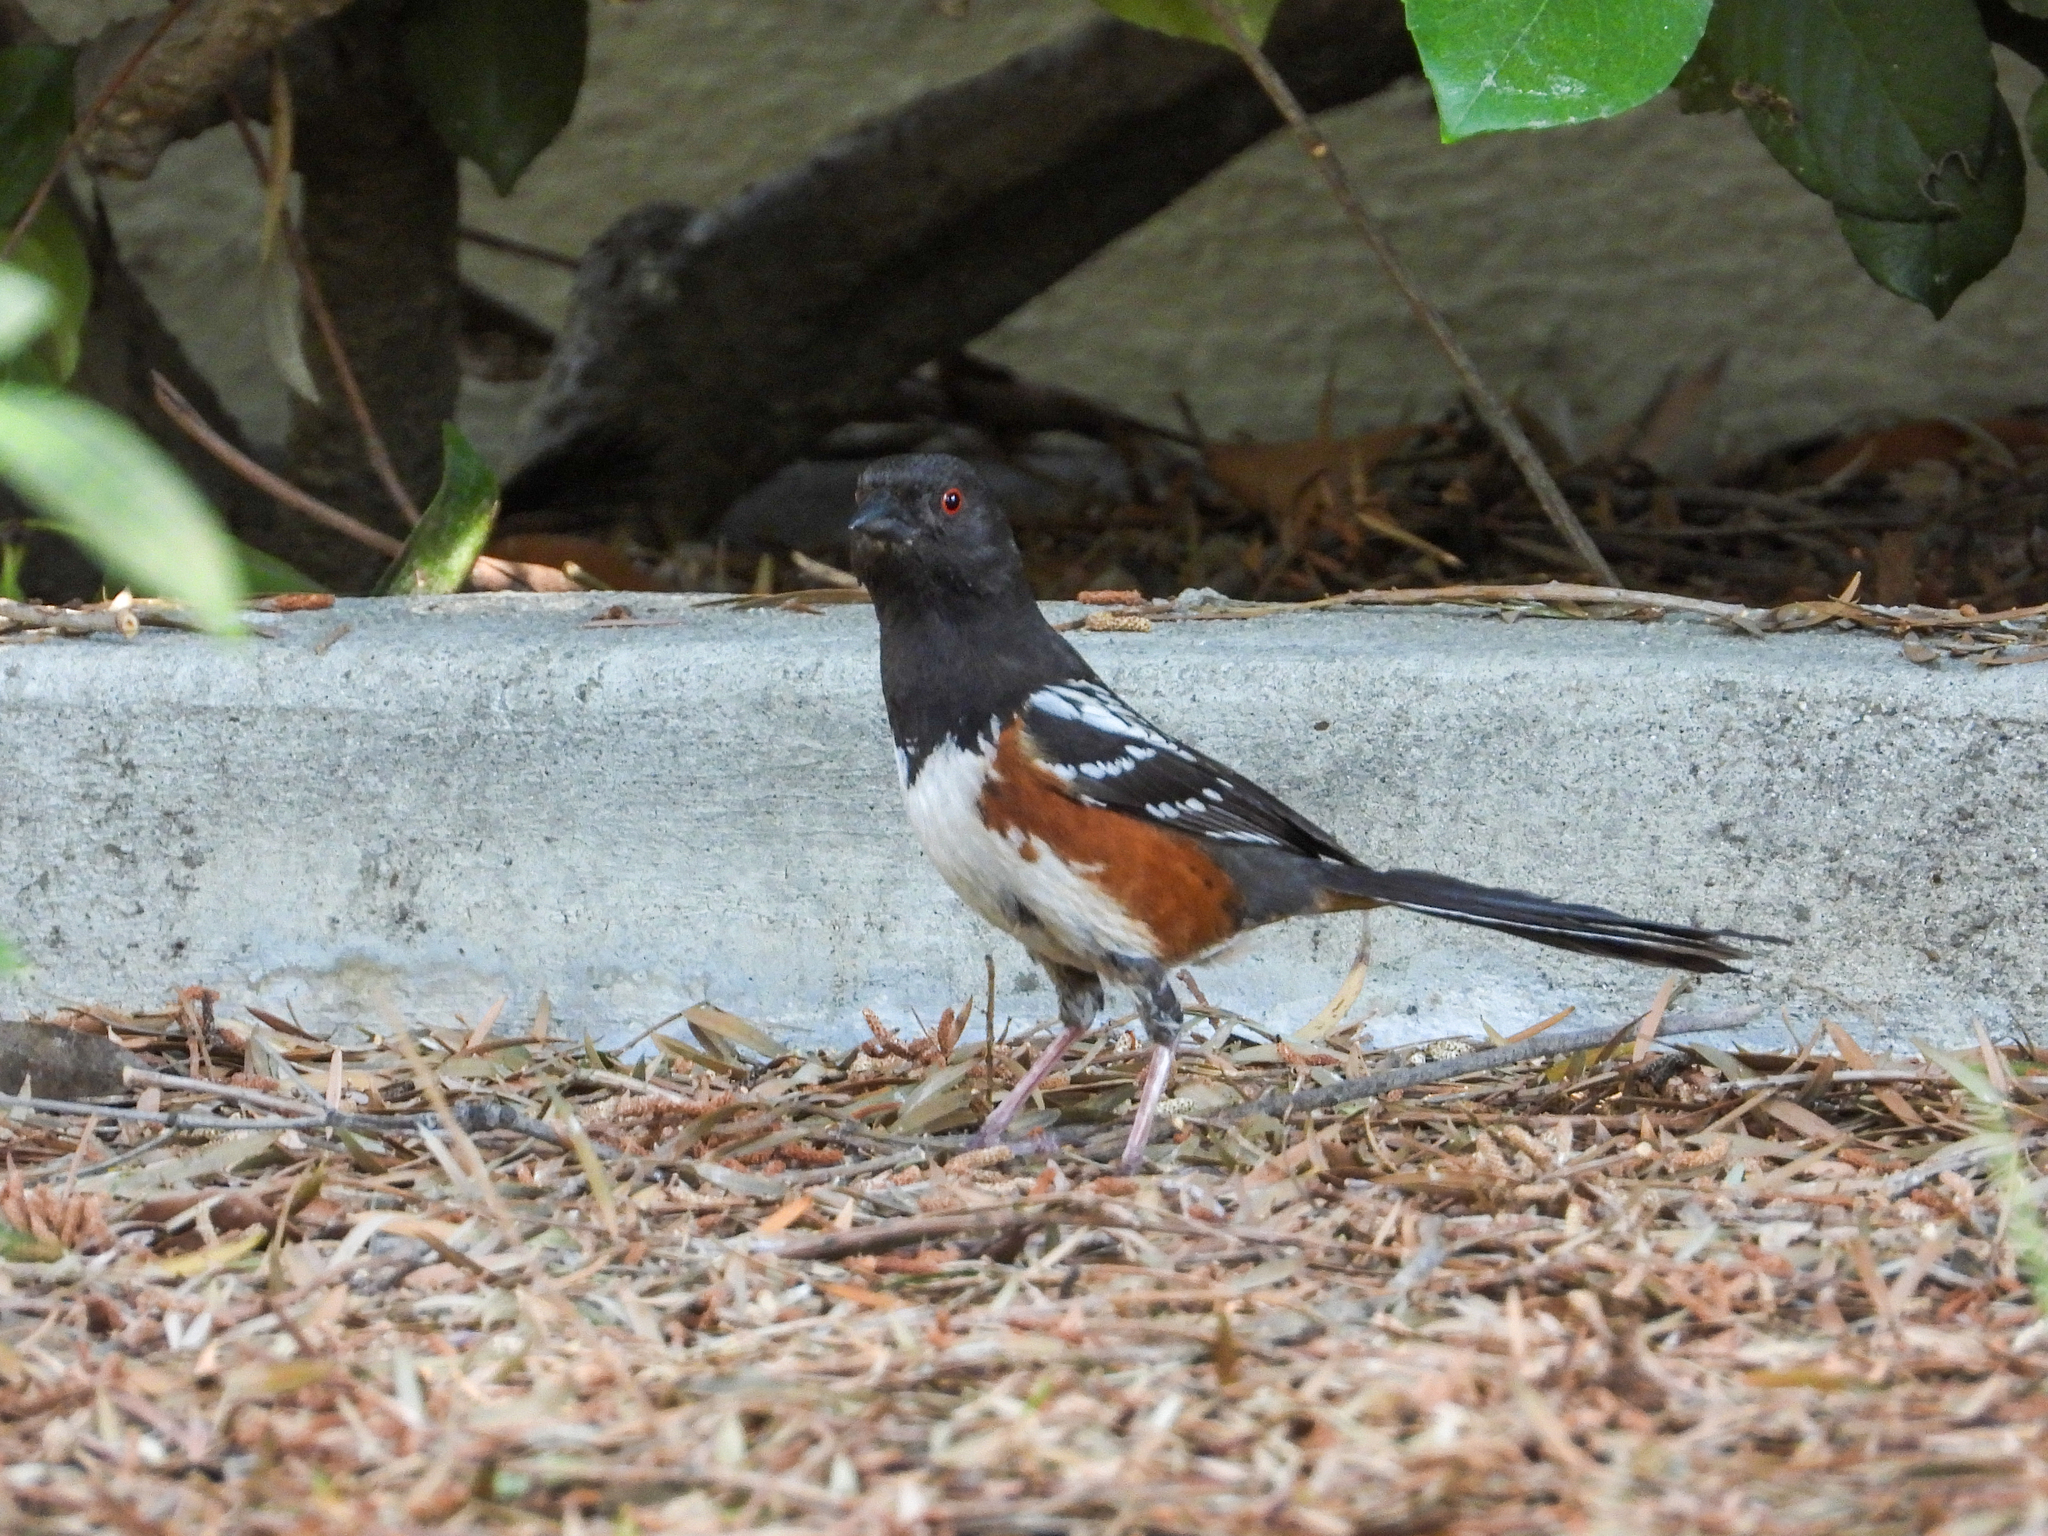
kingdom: Animalia
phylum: Chordata
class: Aves
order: Passeriformes
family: Passerellidae
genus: Pipilo
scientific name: Pipilo maculatus
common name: Spotted towhee
